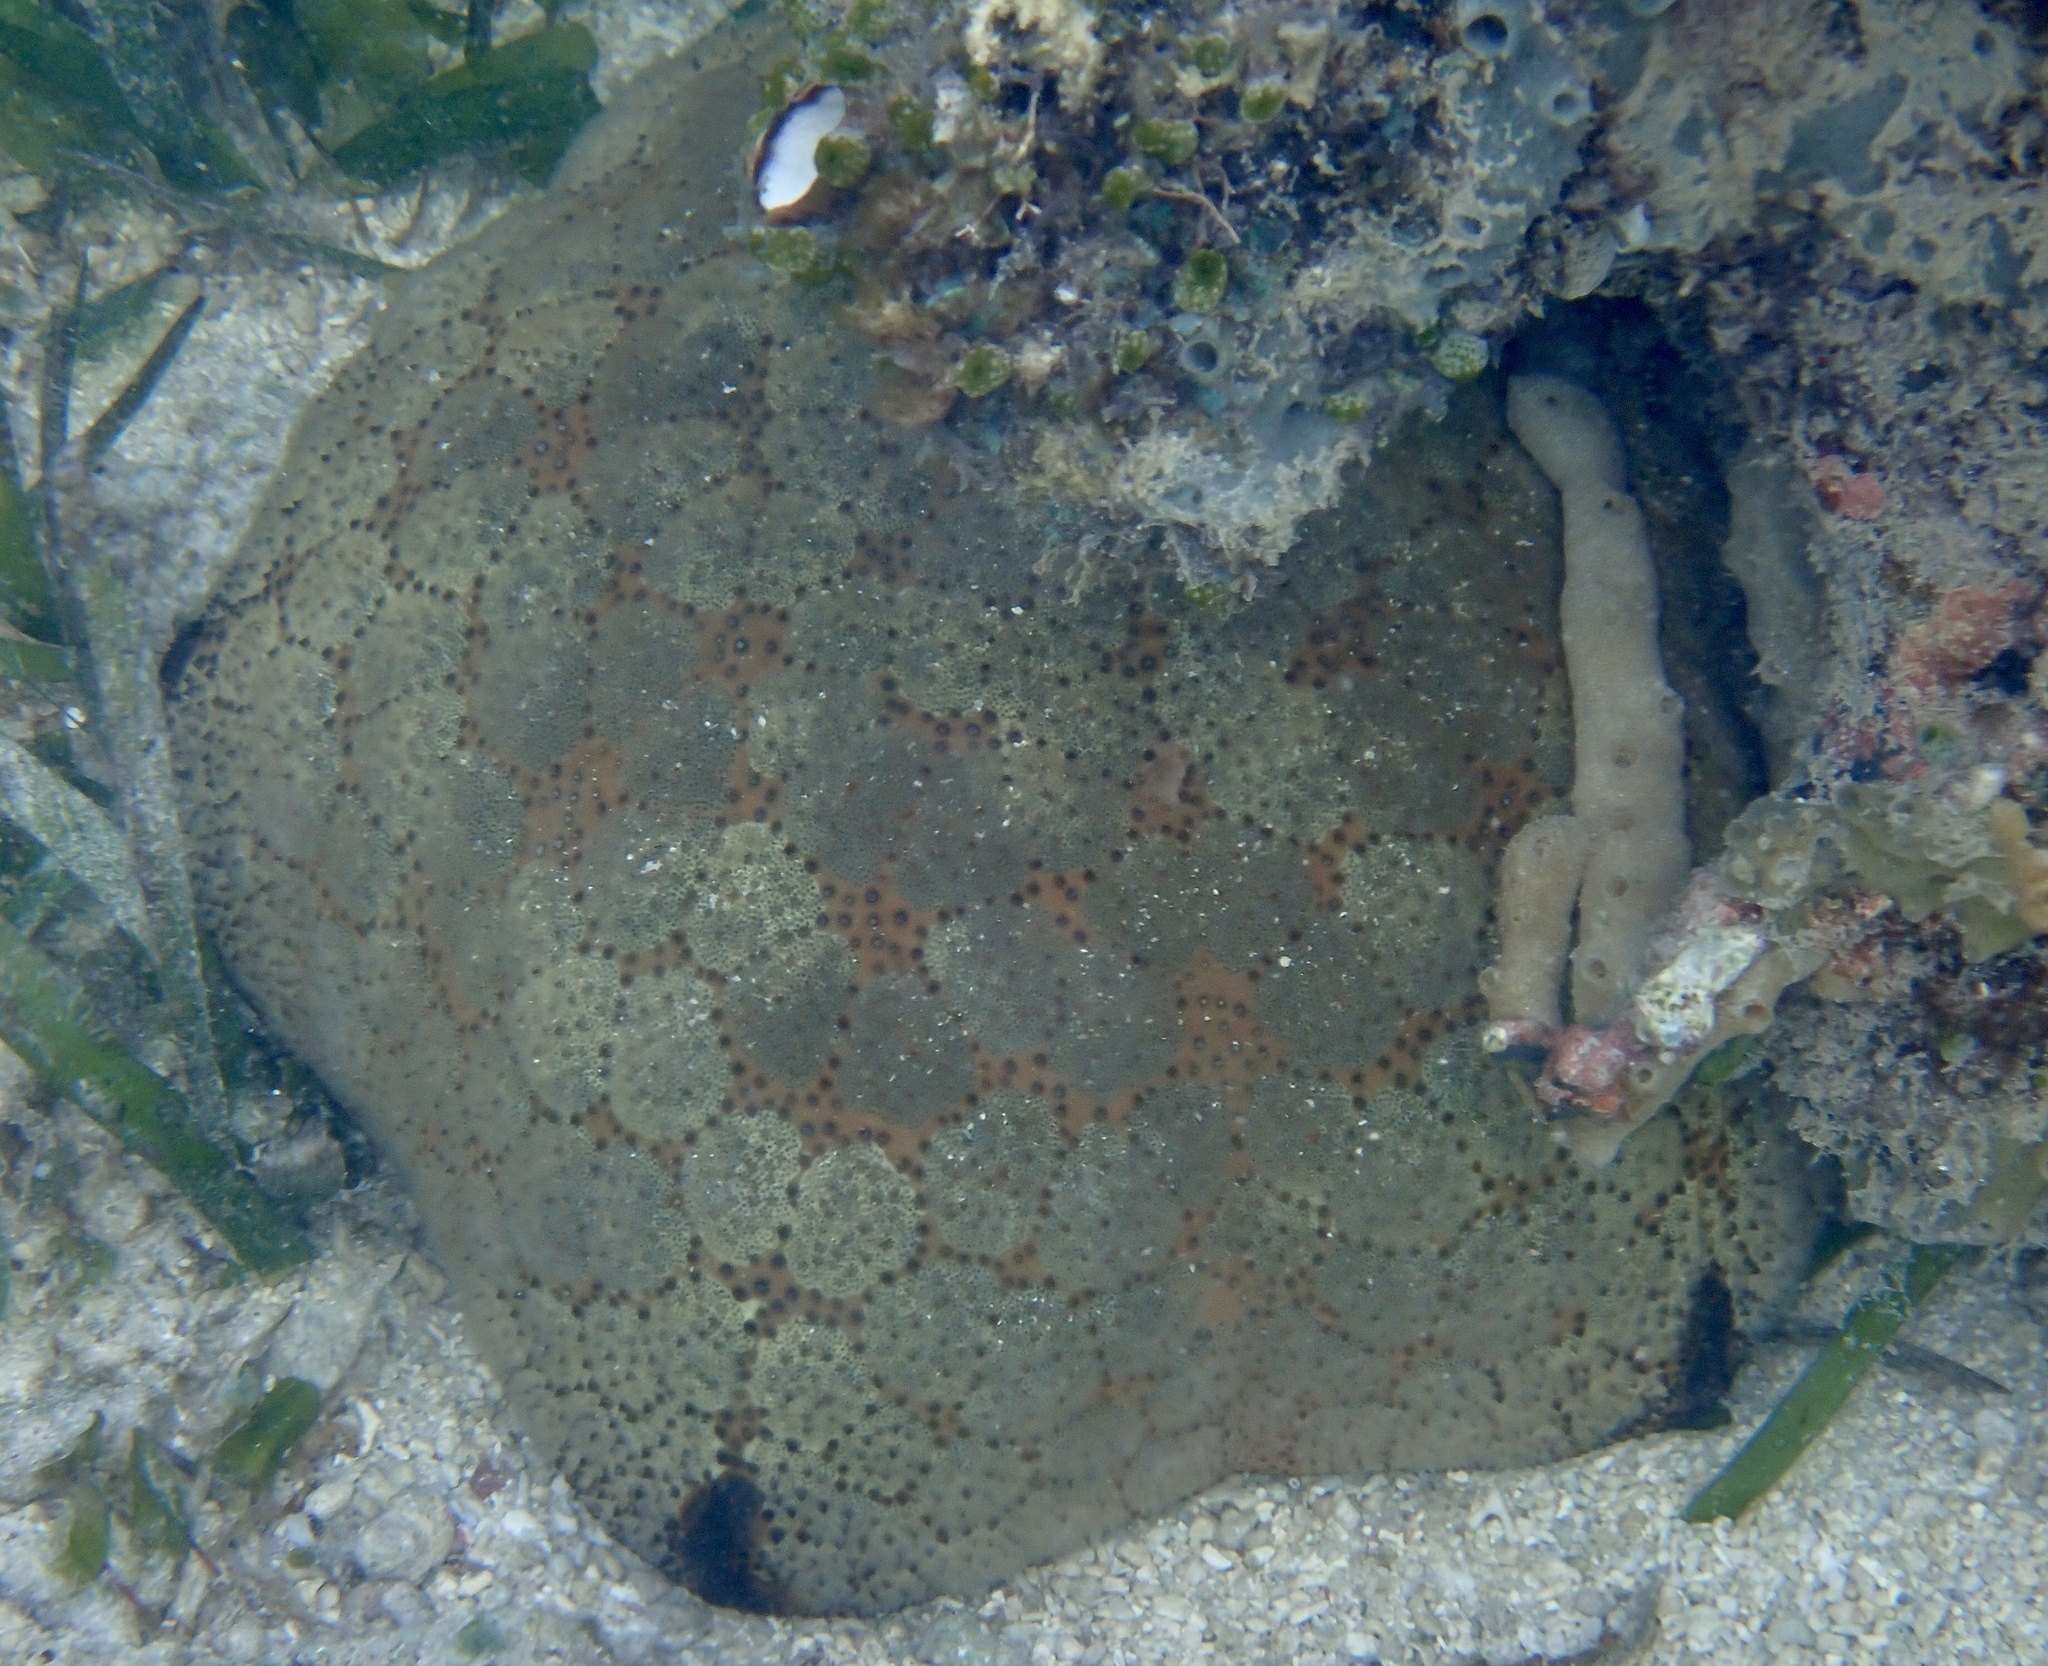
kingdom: Animalia
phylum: Echinodermata
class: Asteroidea
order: Valvatida
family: Oreasteridae
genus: Culcita
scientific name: Culcita novaeguineae
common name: Cushion star
